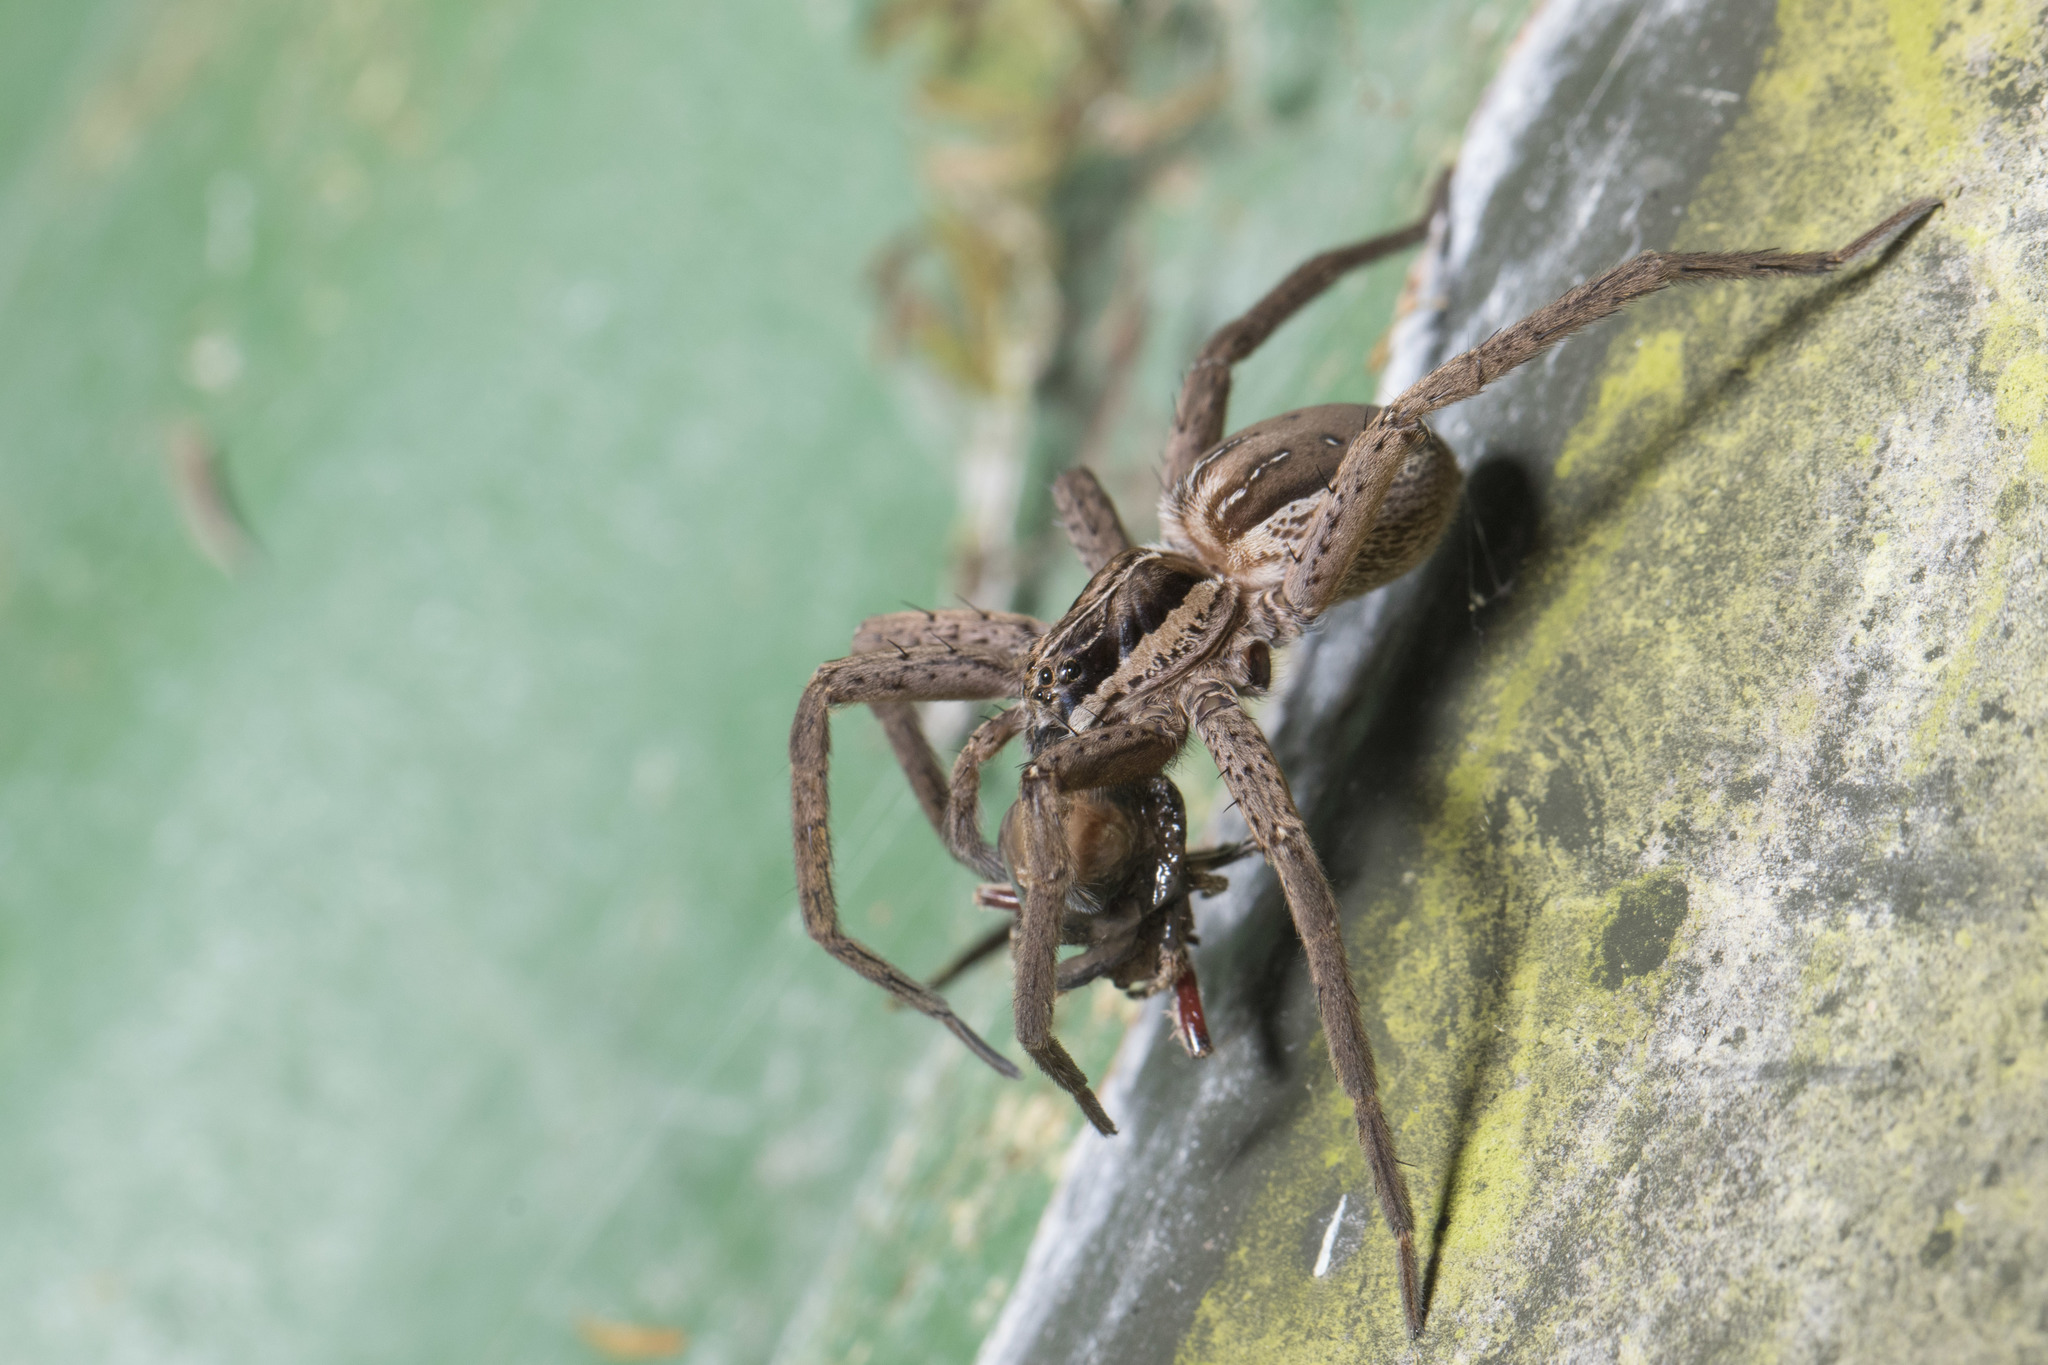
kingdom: Animalia
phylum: Arthropoda
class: Arachnida
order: Araneae
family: Pisauridae
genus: Dolomedes
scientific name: Dolomedes minor
